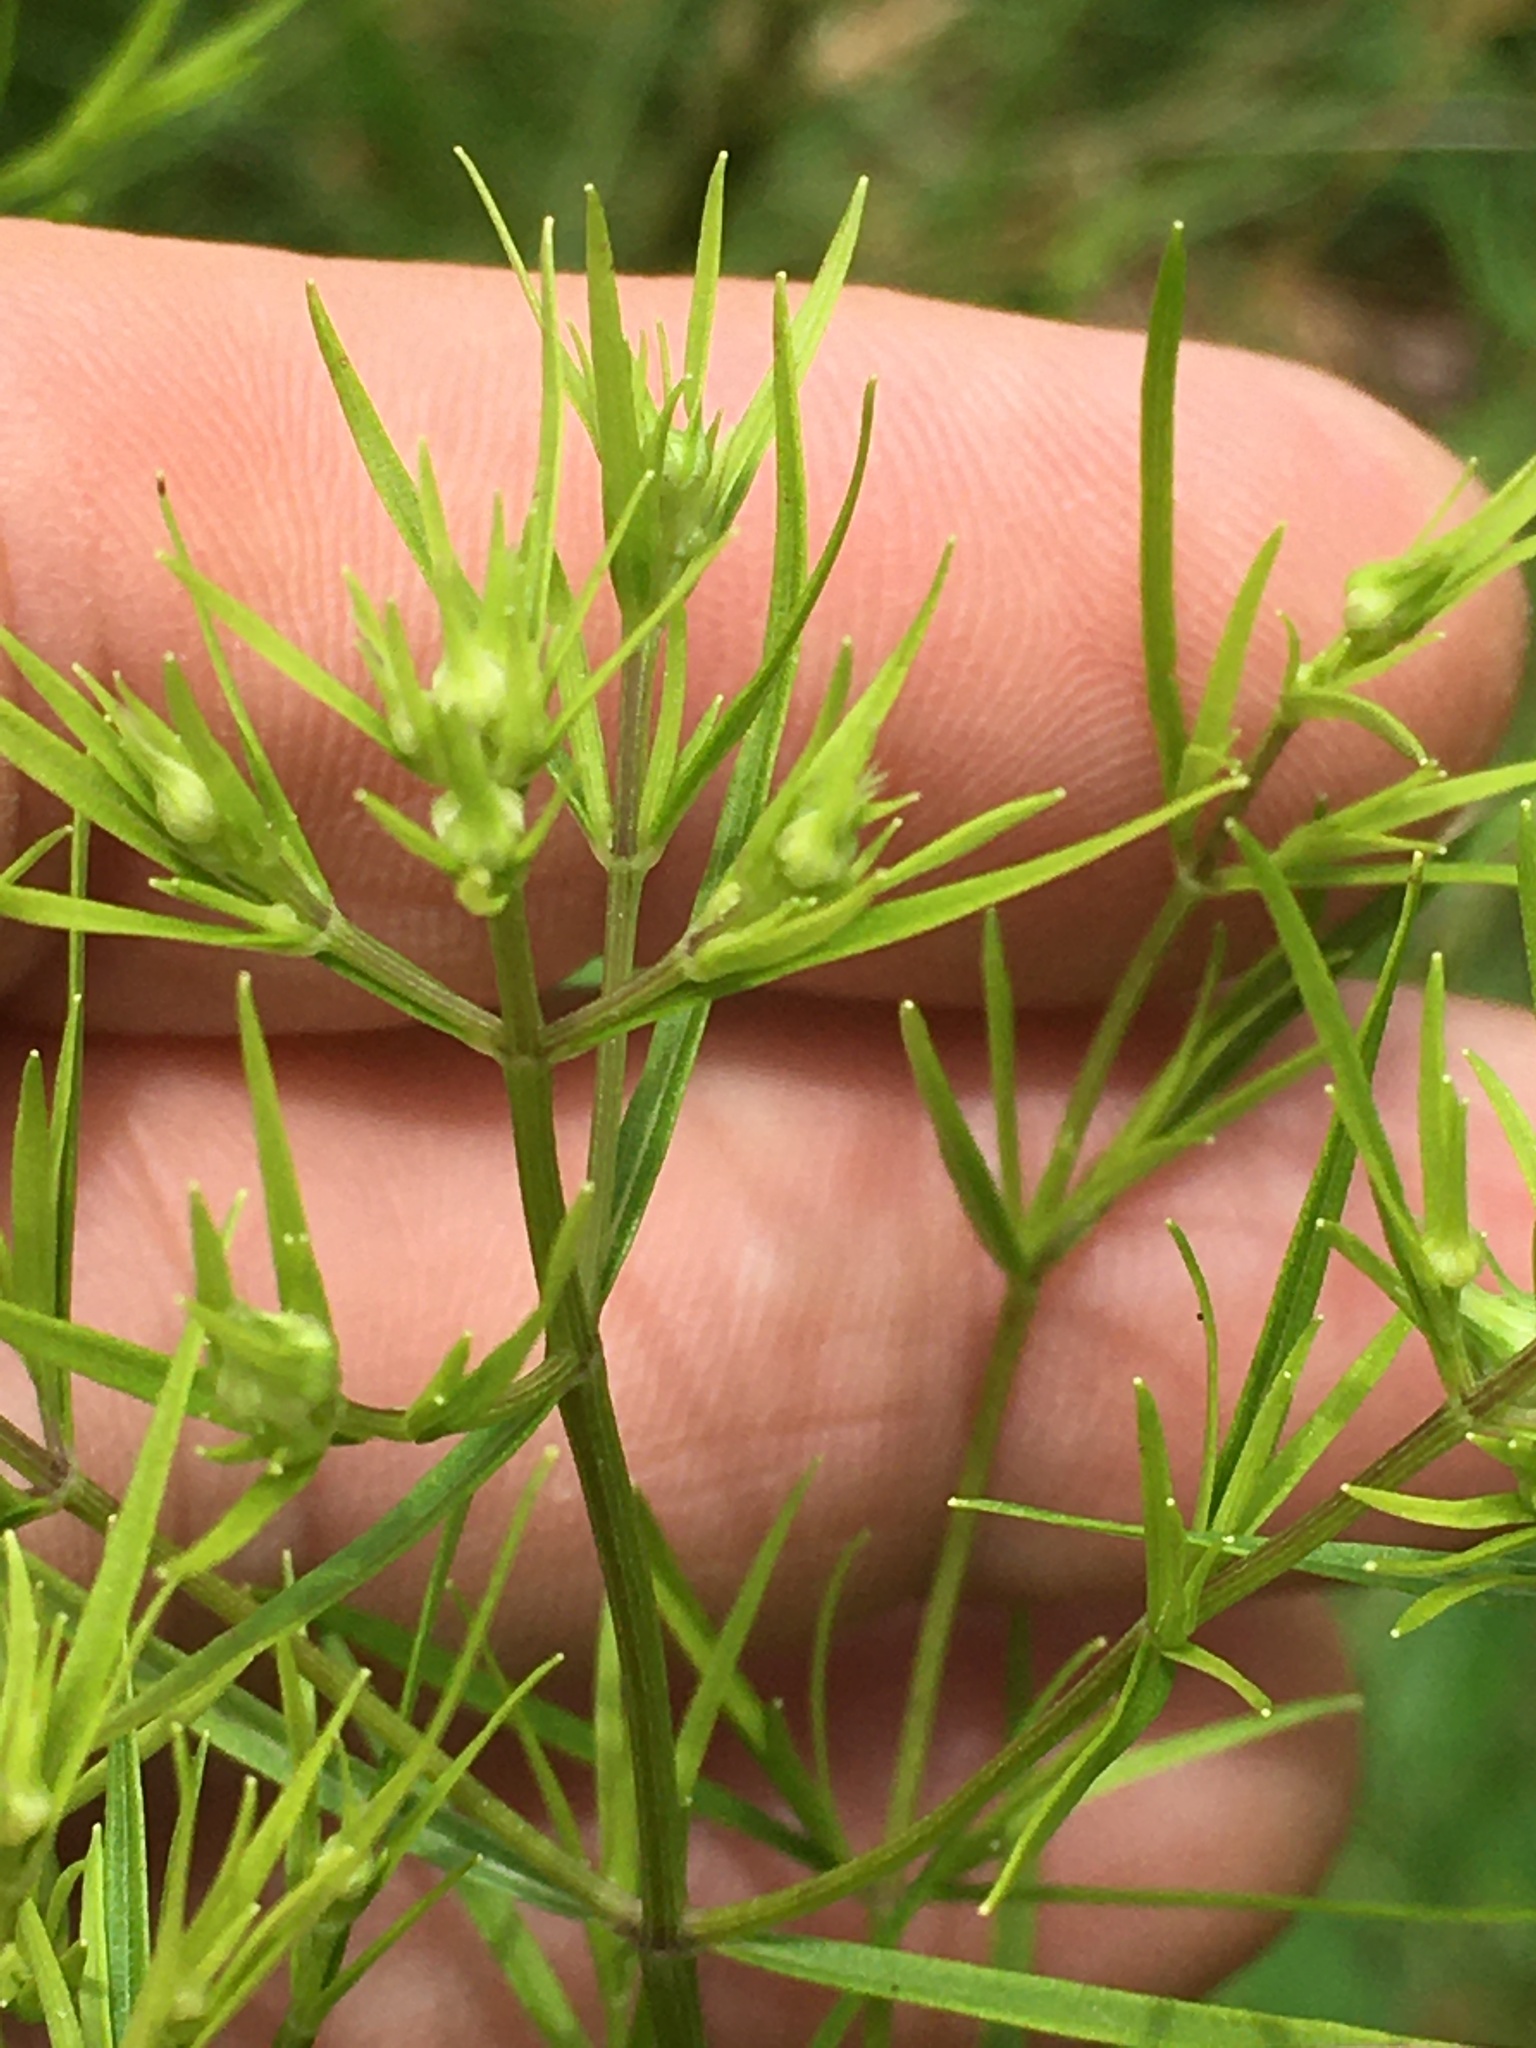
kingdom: Plantae
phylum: Tracheophyta
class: Magnoliopsida
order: Lamiales
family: Lamiaceae
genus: Pycnanthemum
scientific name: Pycnanthemum tenuifolium
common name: Narrow-leaf mountain-mint
